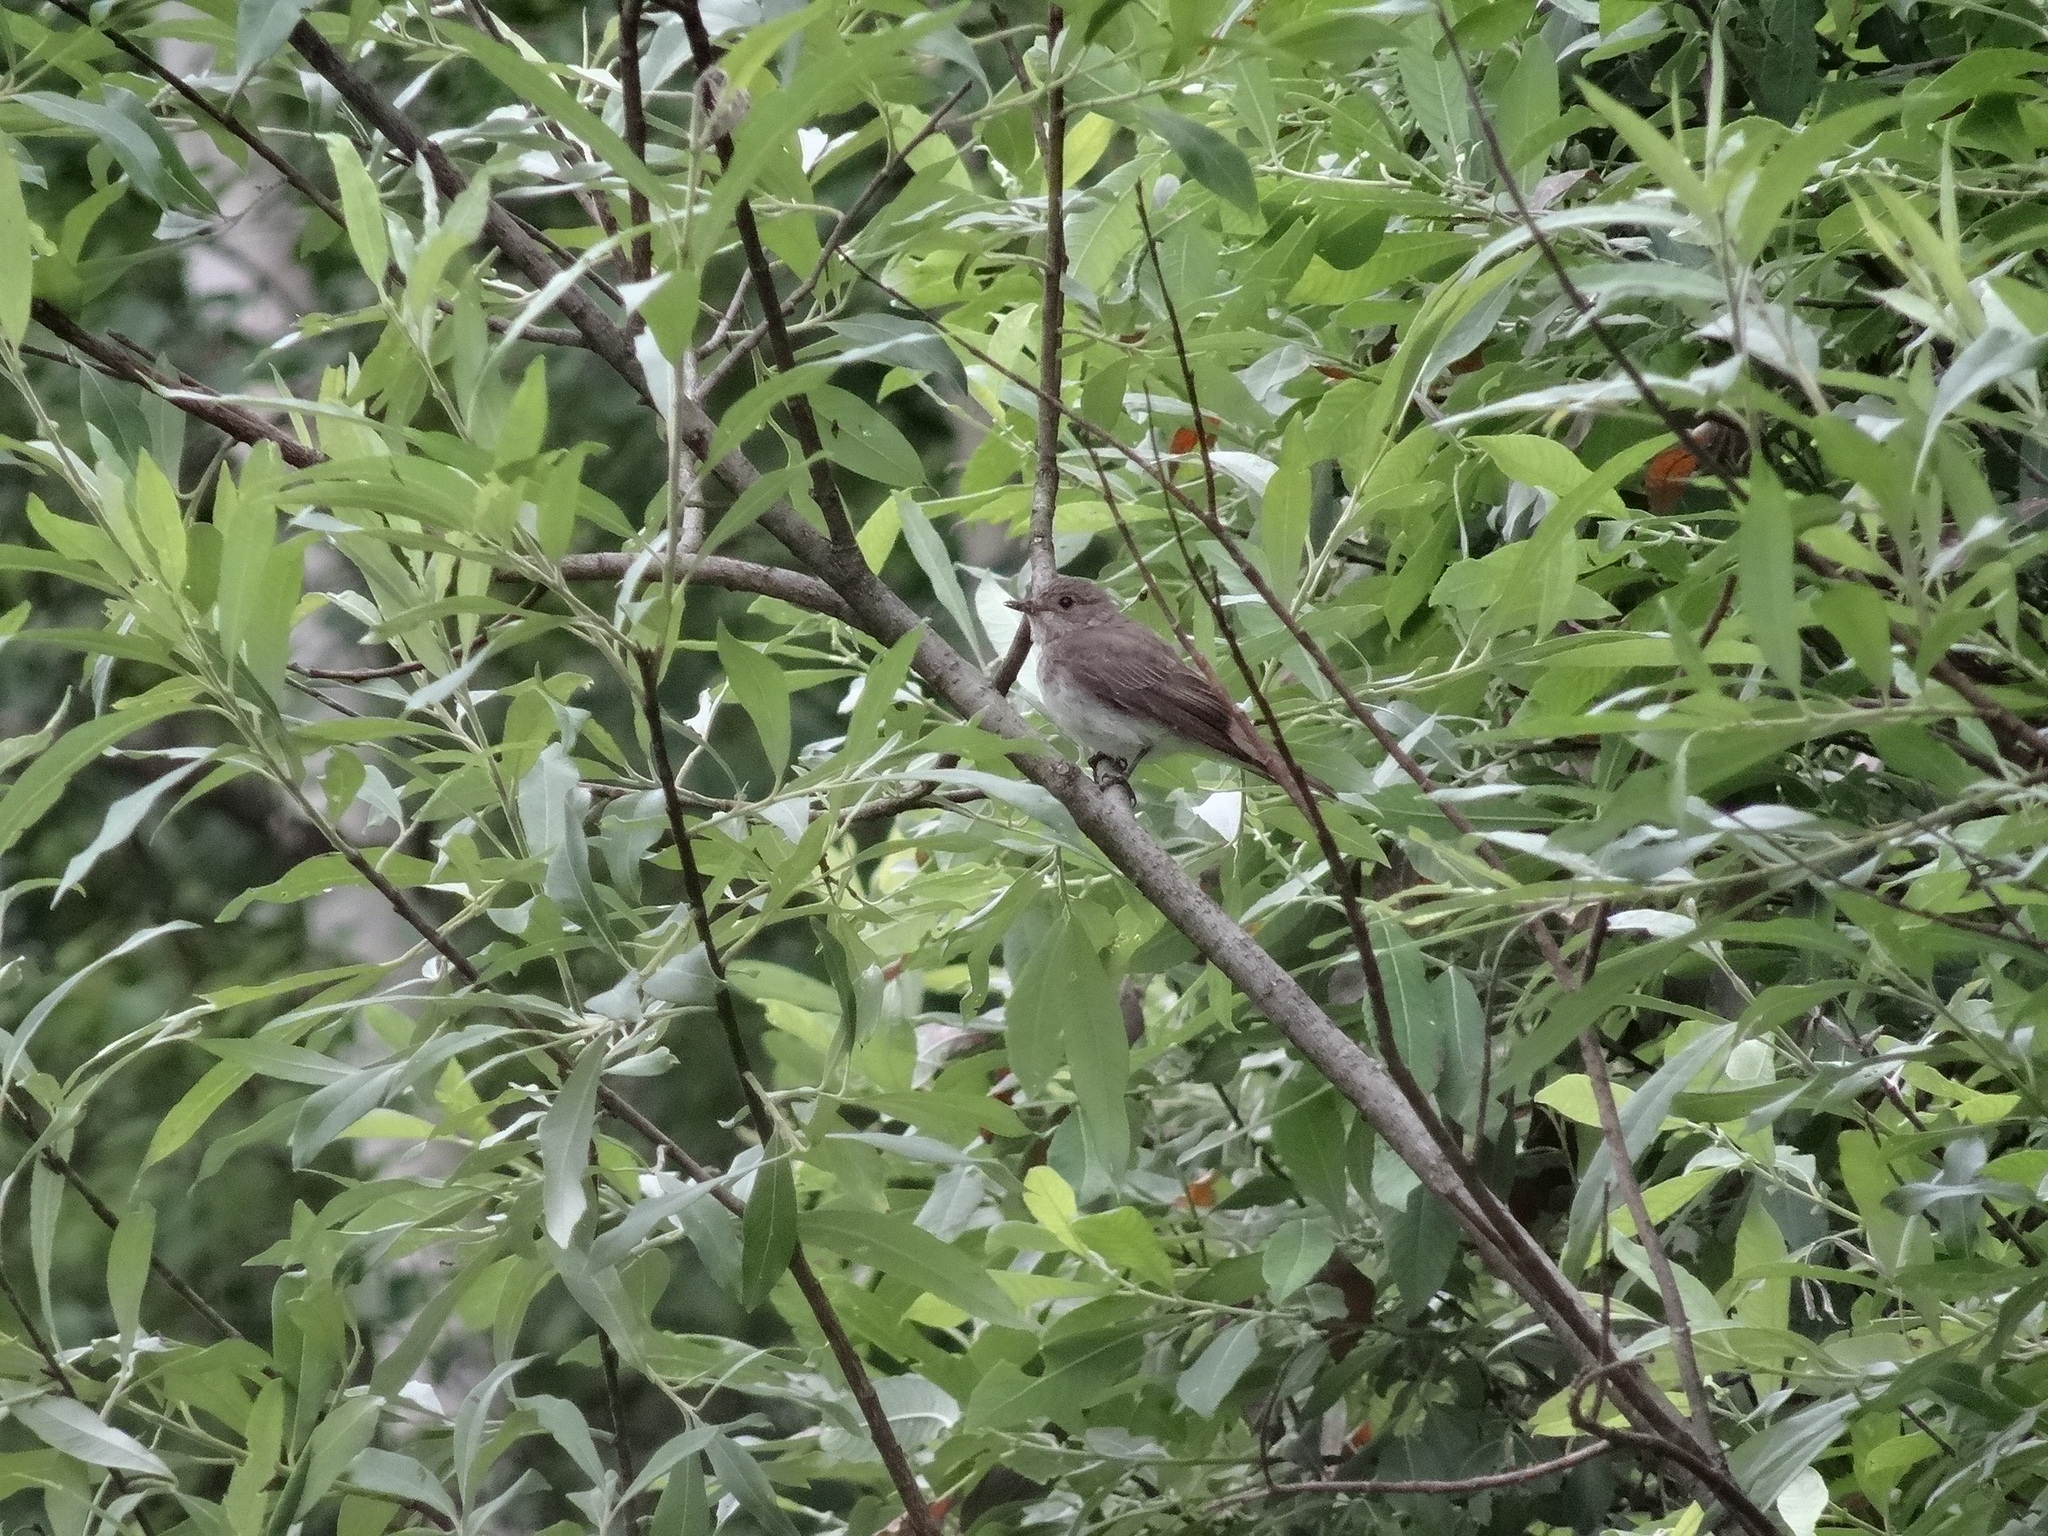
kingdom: Animalia
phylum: Chordata
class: Aves
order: Passeriformes
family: Muscicapidae
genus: Muscicapa
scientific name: Muscicapa striata
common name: Spotted flycatcher
